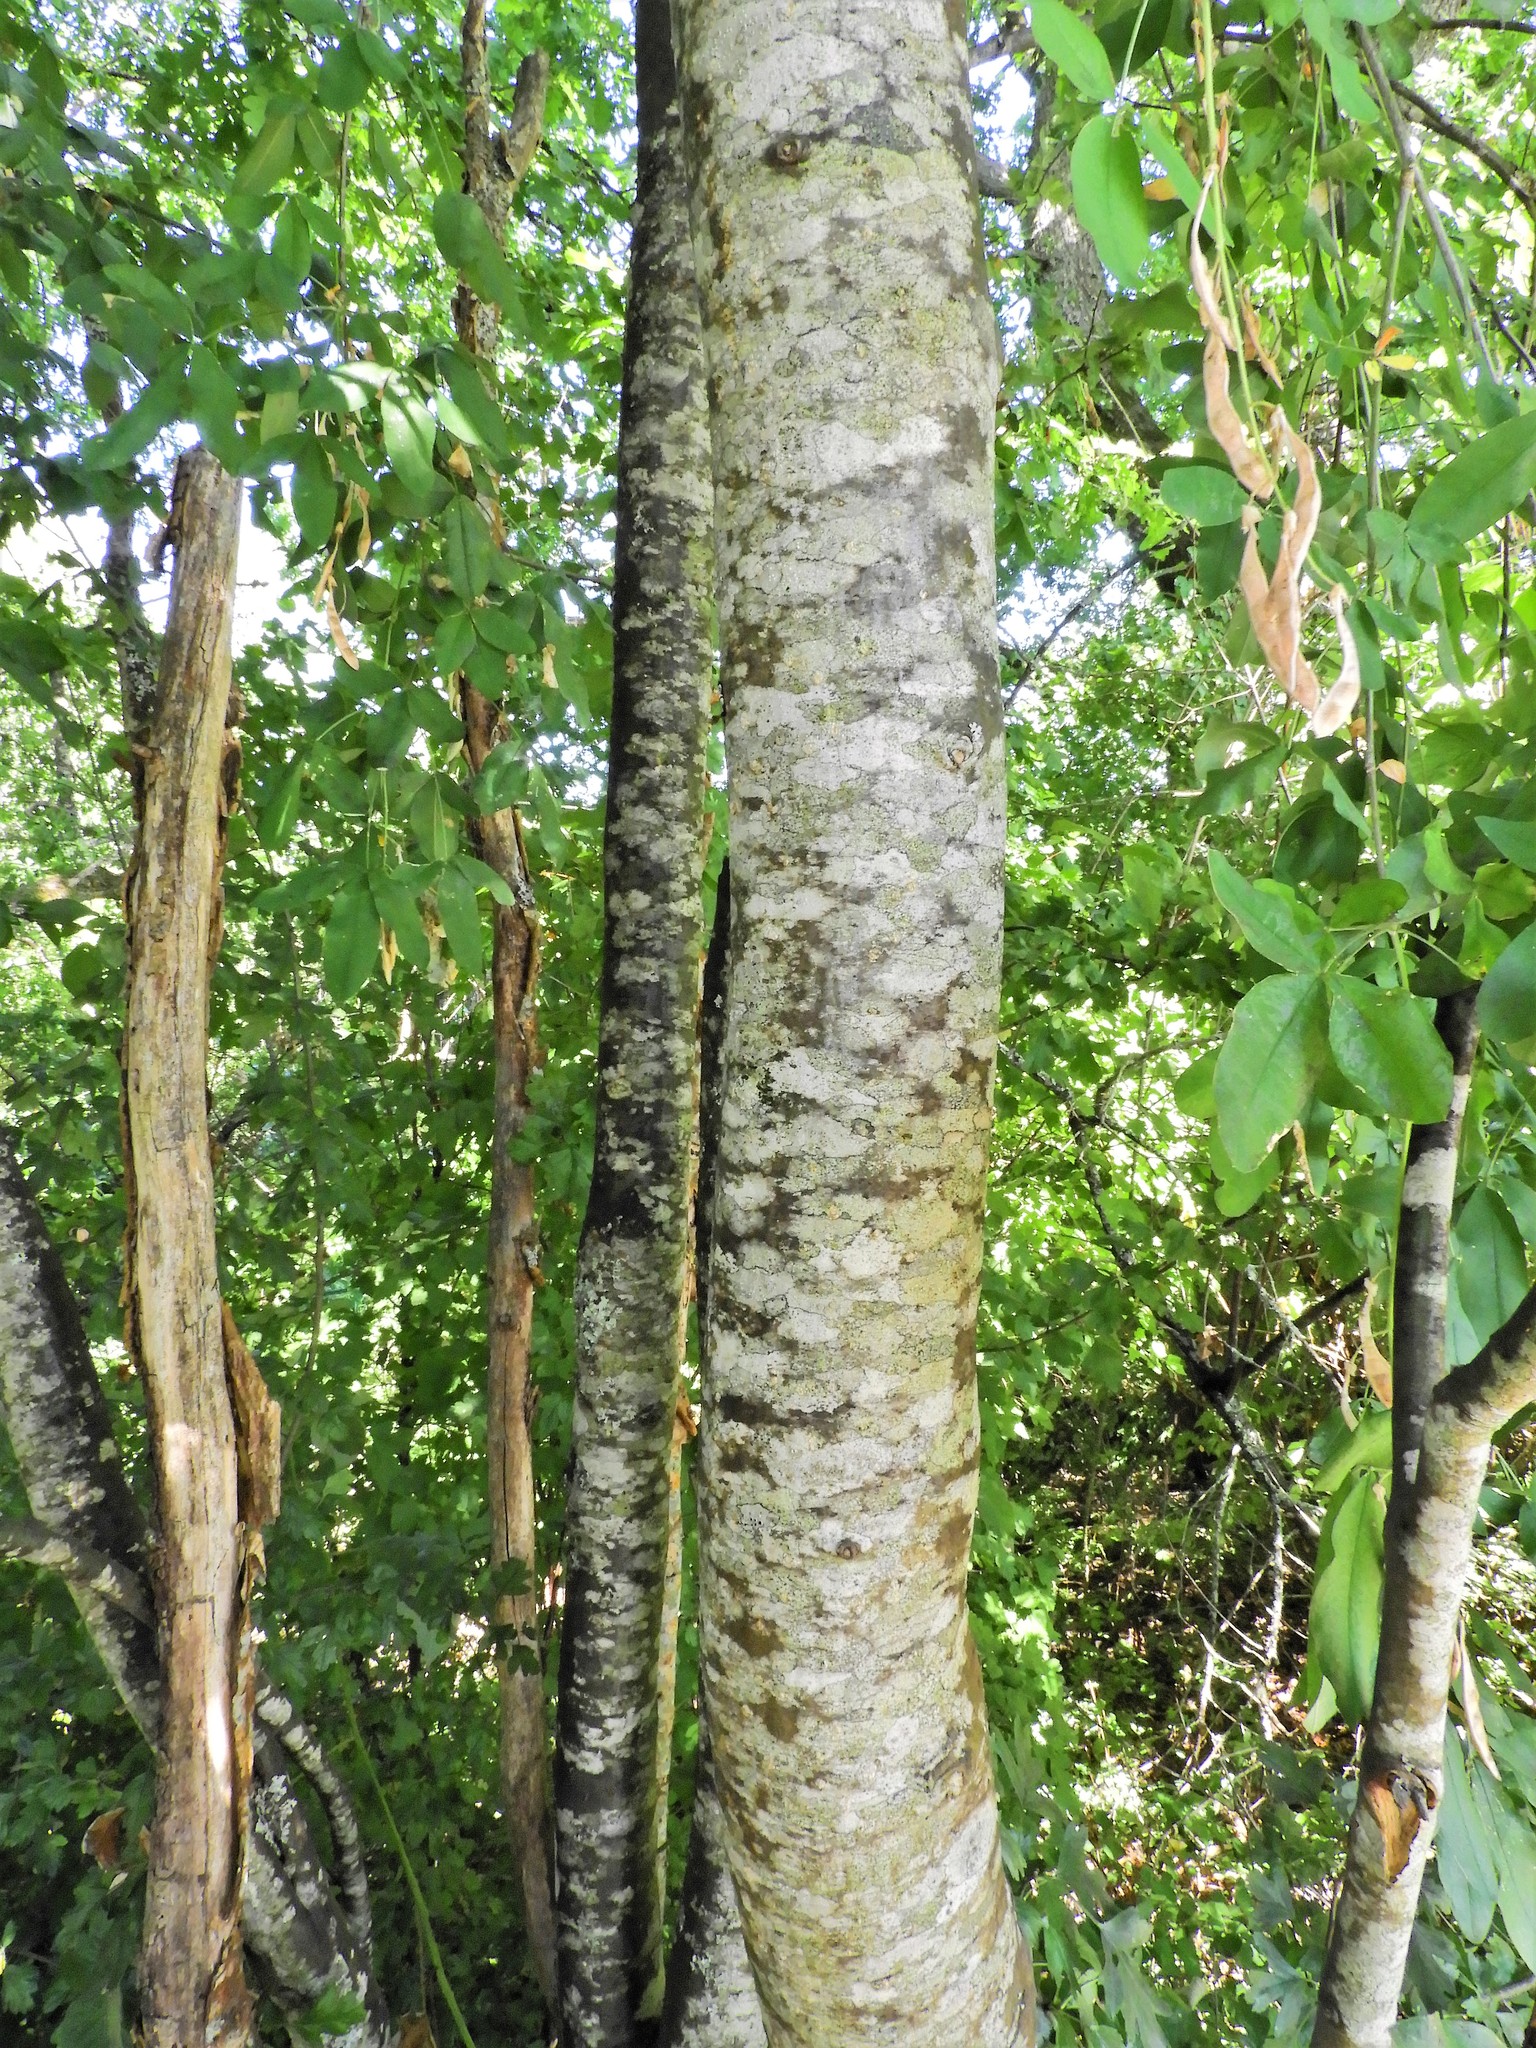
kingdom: Plantae
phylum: Tracheophyta
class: Magnoliopsida
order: Fabales
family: Fabaceae
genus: Laburnum
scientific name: Laburnum anagyroides
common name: Laburnum
